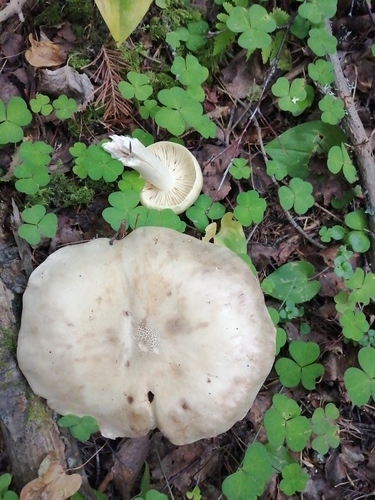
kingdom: Fungi
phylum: Basidiomycota
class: Agaricomycetes
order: Agaricales
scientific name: Agaricales
